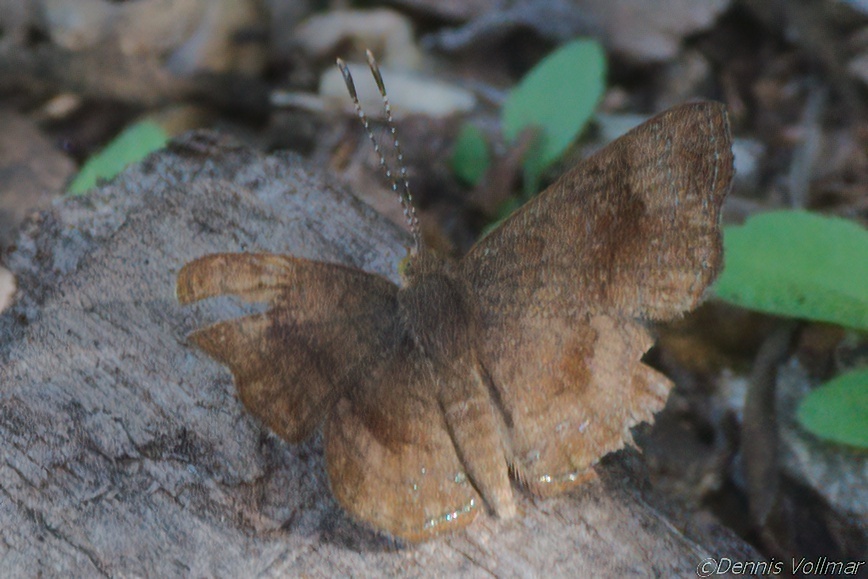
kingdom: Animalia
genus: Calephelis
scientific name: Calephelis nemesis
